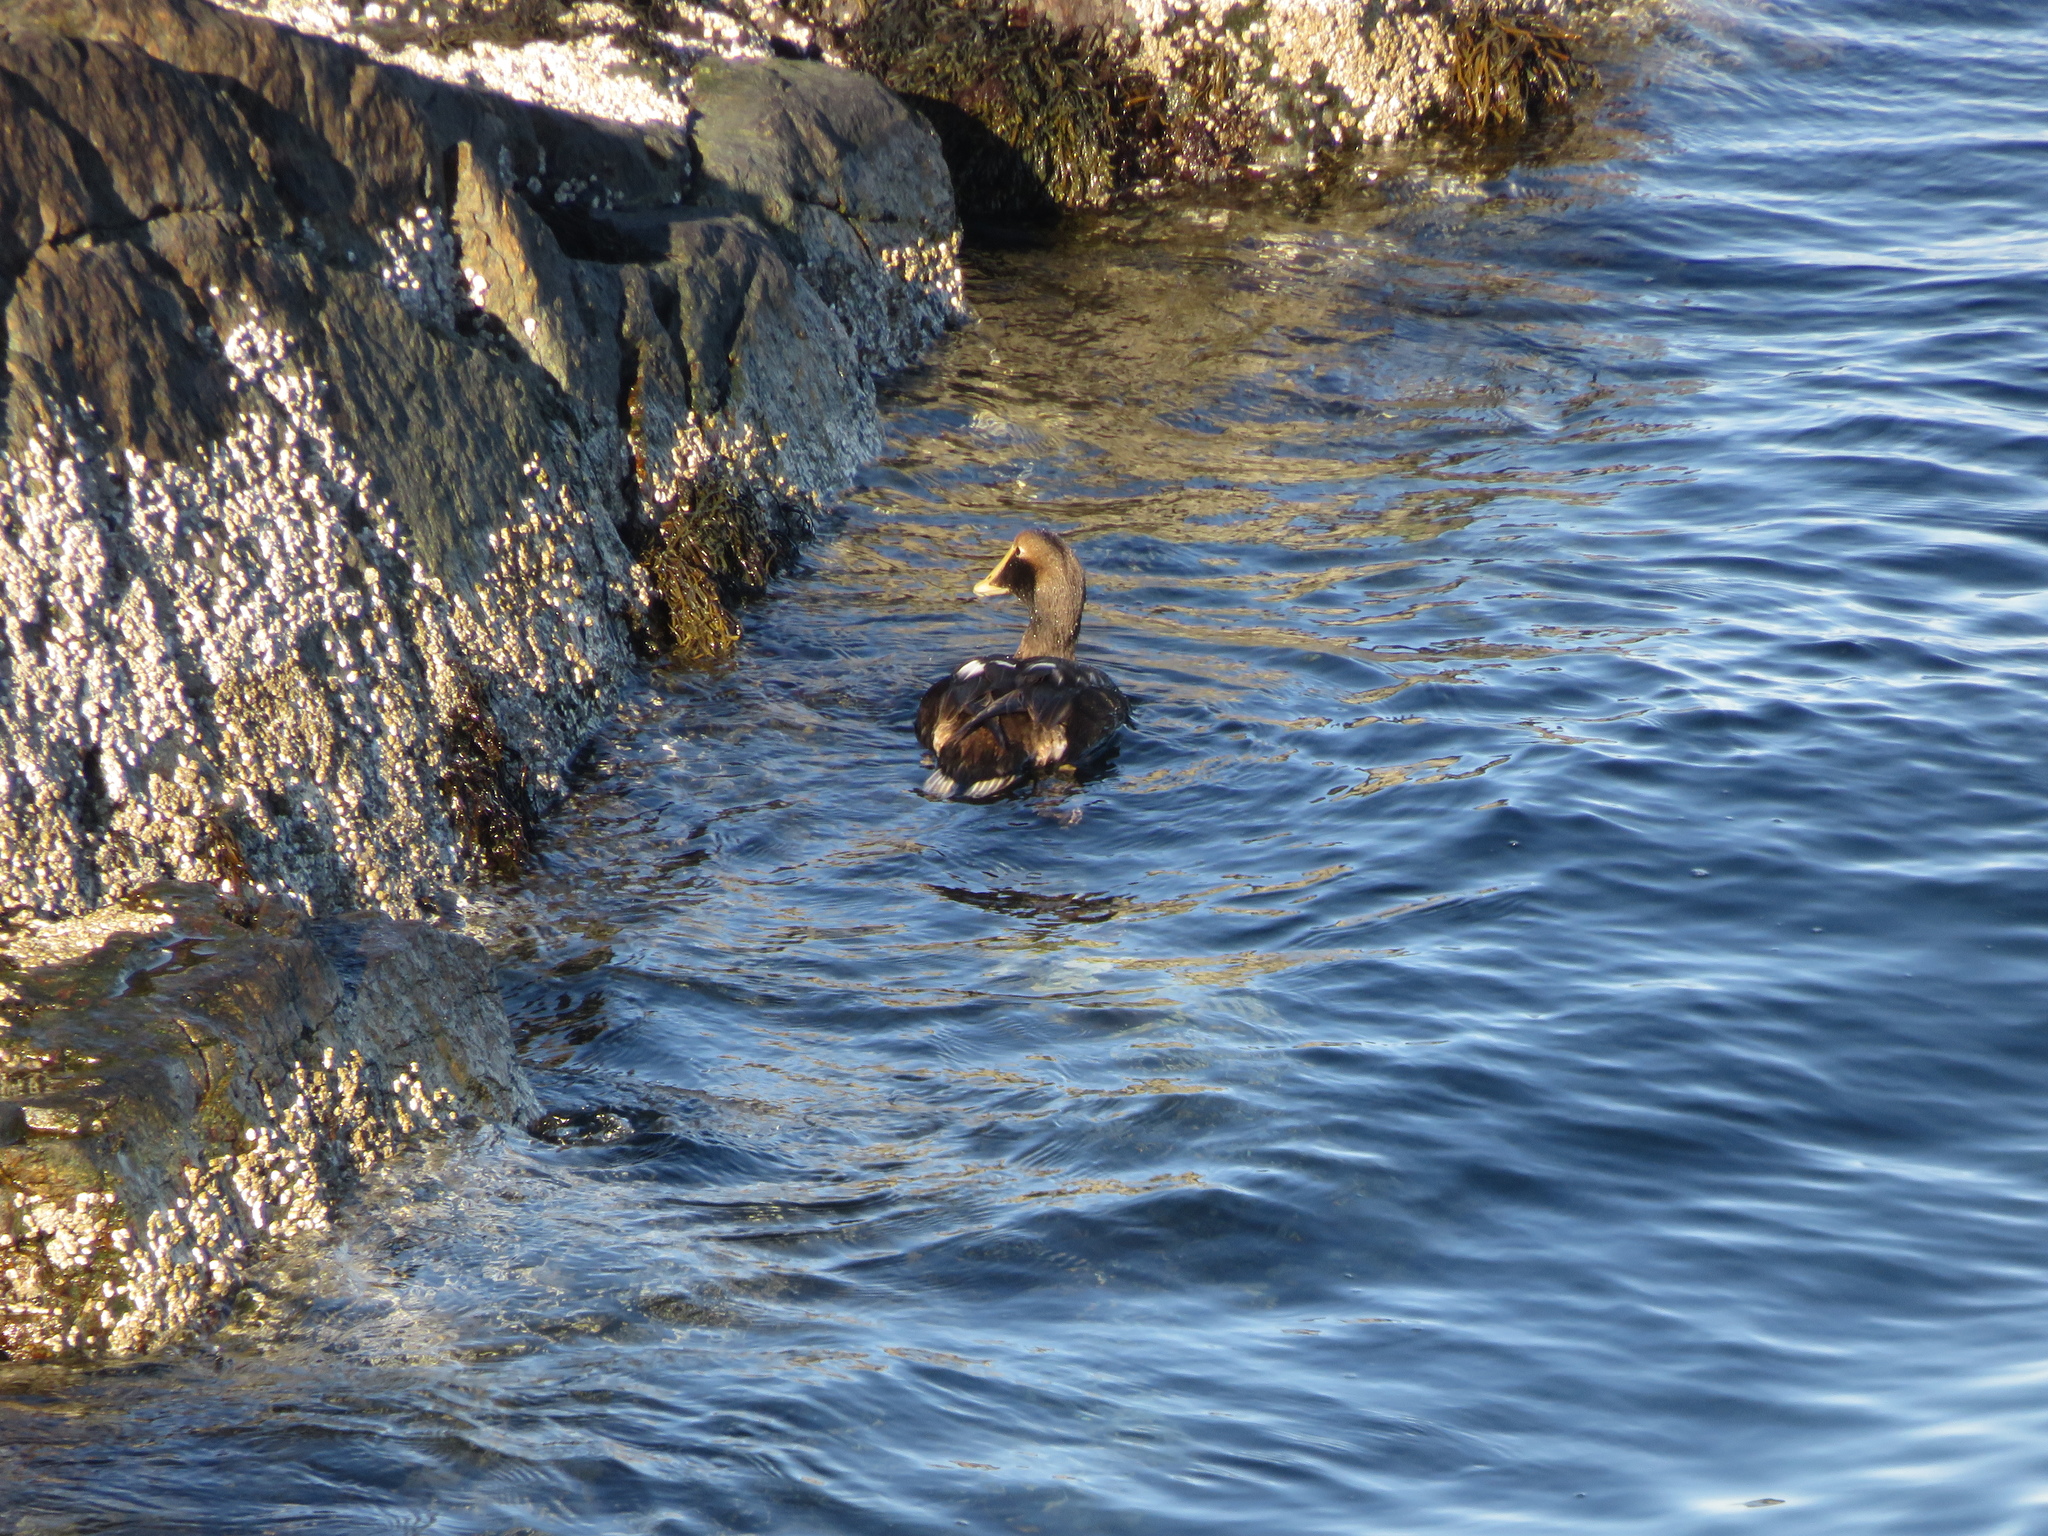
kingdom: Animalia
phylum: Chordata
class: Aves
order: Anseriformes
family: Anatidae
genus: Somateria
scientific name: Somateria mollissima
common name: Common eider
